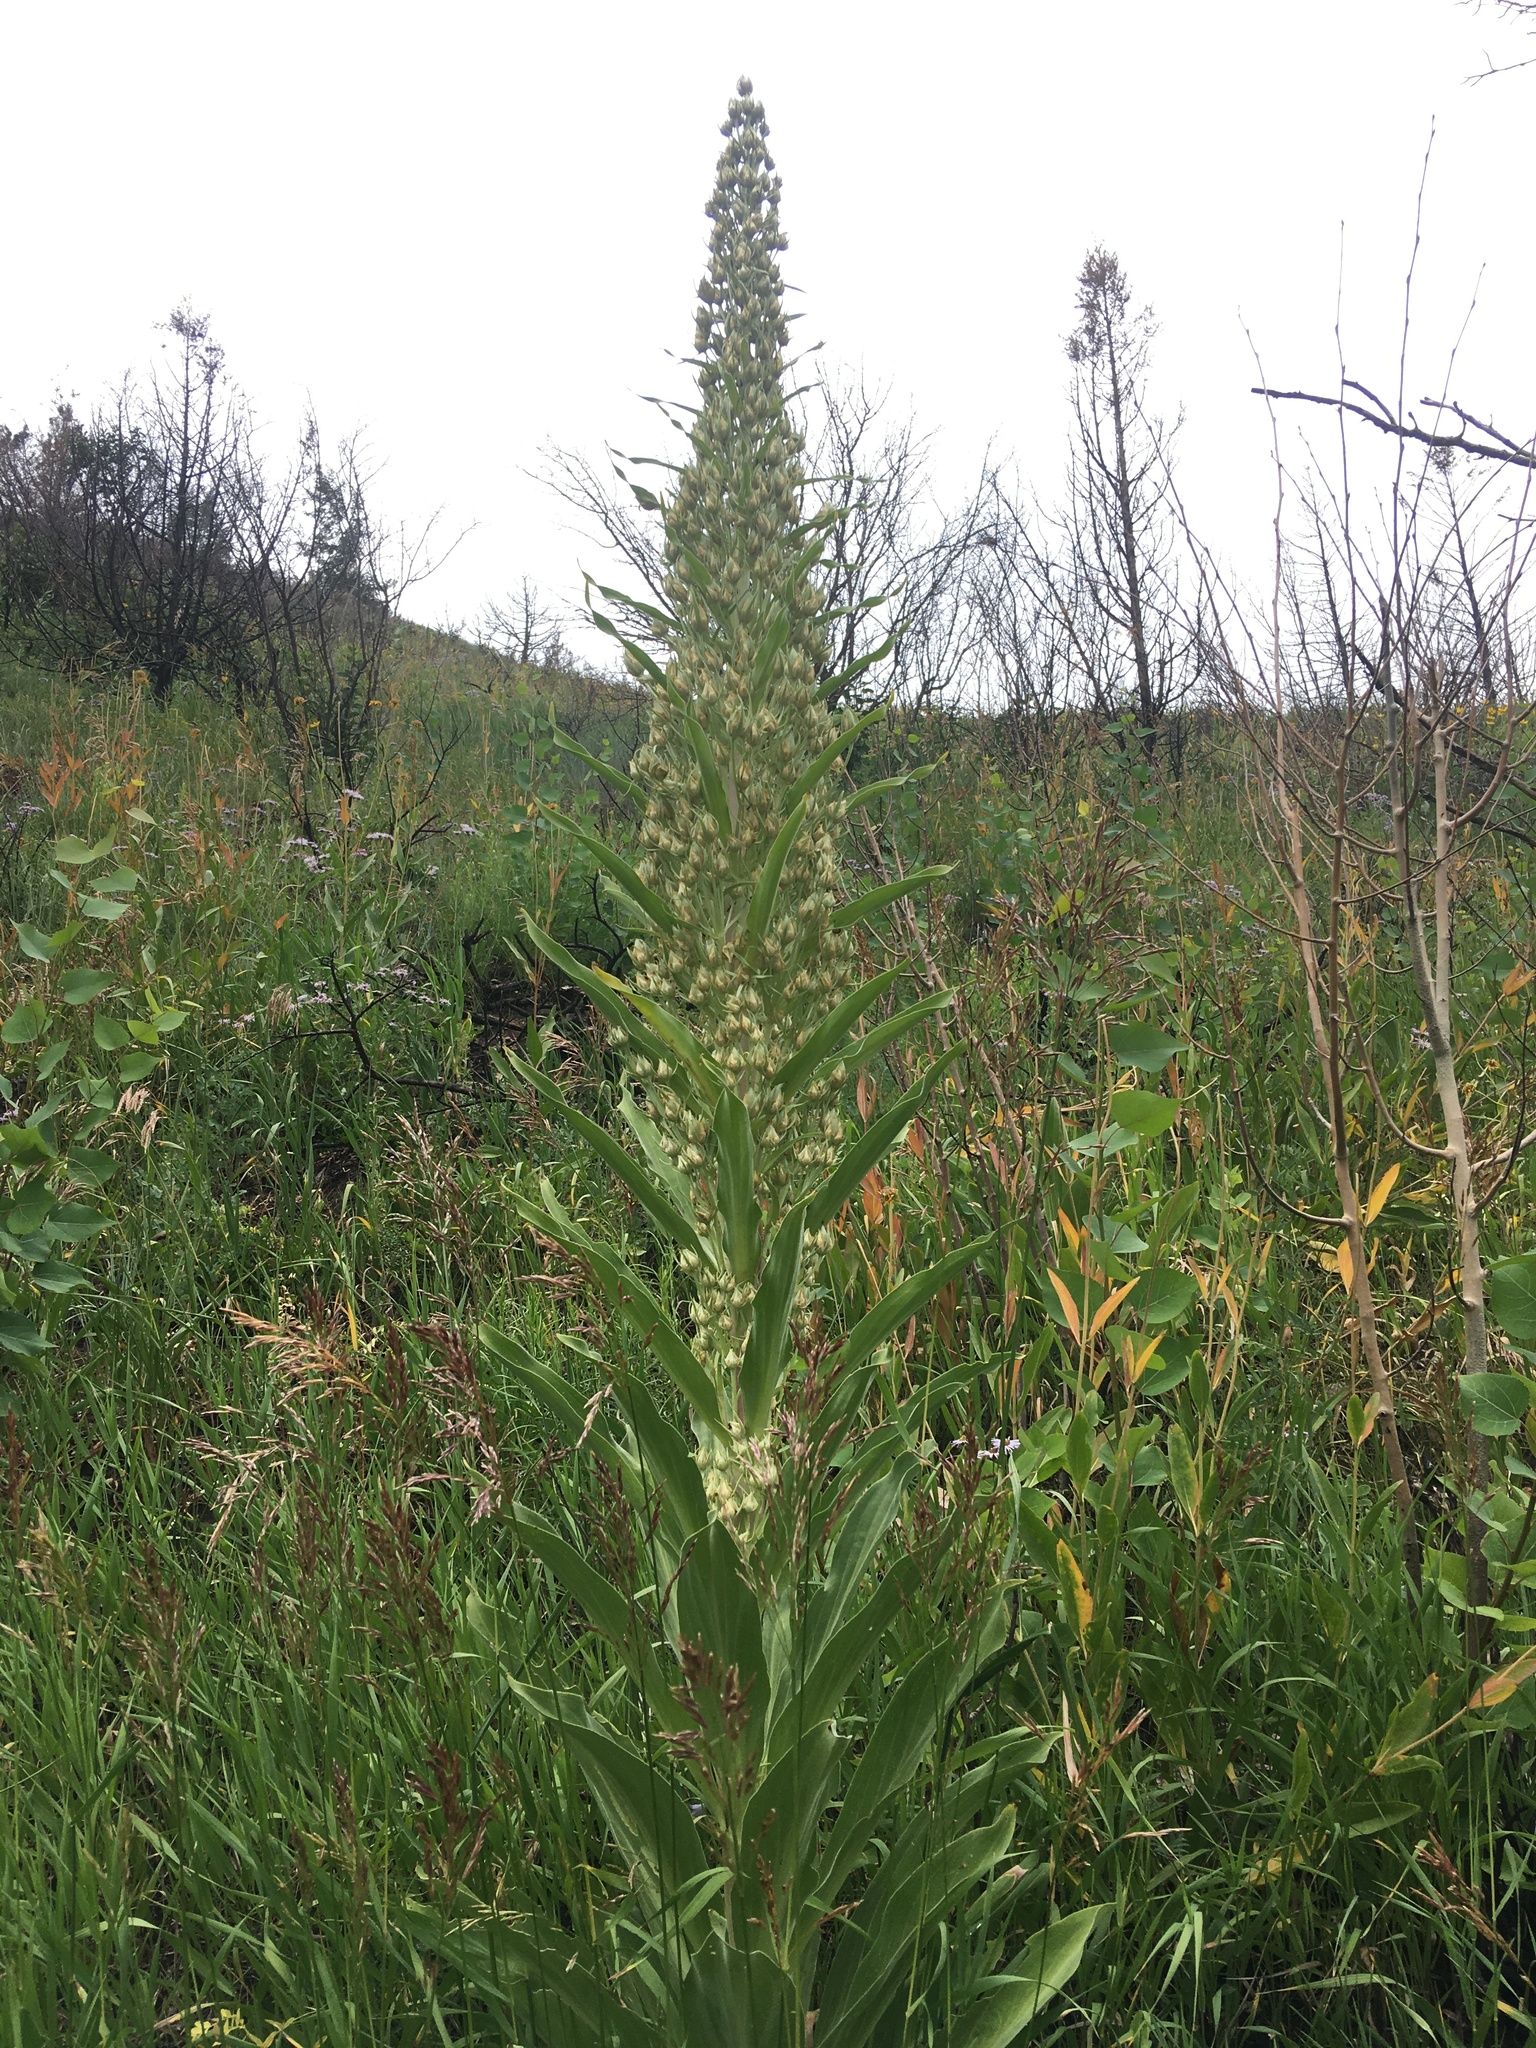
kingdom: Plantae
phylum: Tracheophyta
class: Magnoliopsida
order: Gentianales
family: Gentianaceae
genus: Frasera
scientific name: Frasera speciosa
